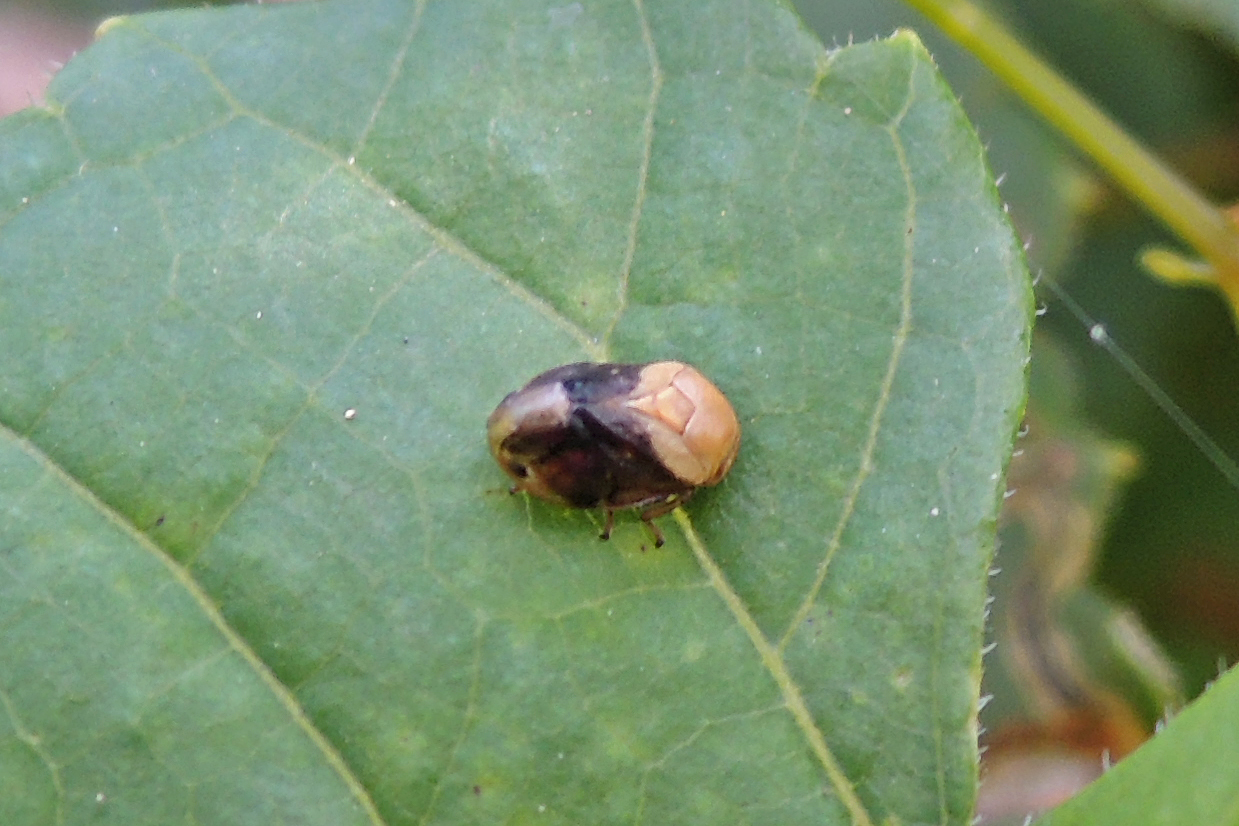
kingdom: Animalia
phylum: Arthropoda
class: Insecta
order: Hemiptera
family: Clastopteridae
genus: Clastoptera
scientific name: Clastoptera achatina
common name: Pecan spittlebug
